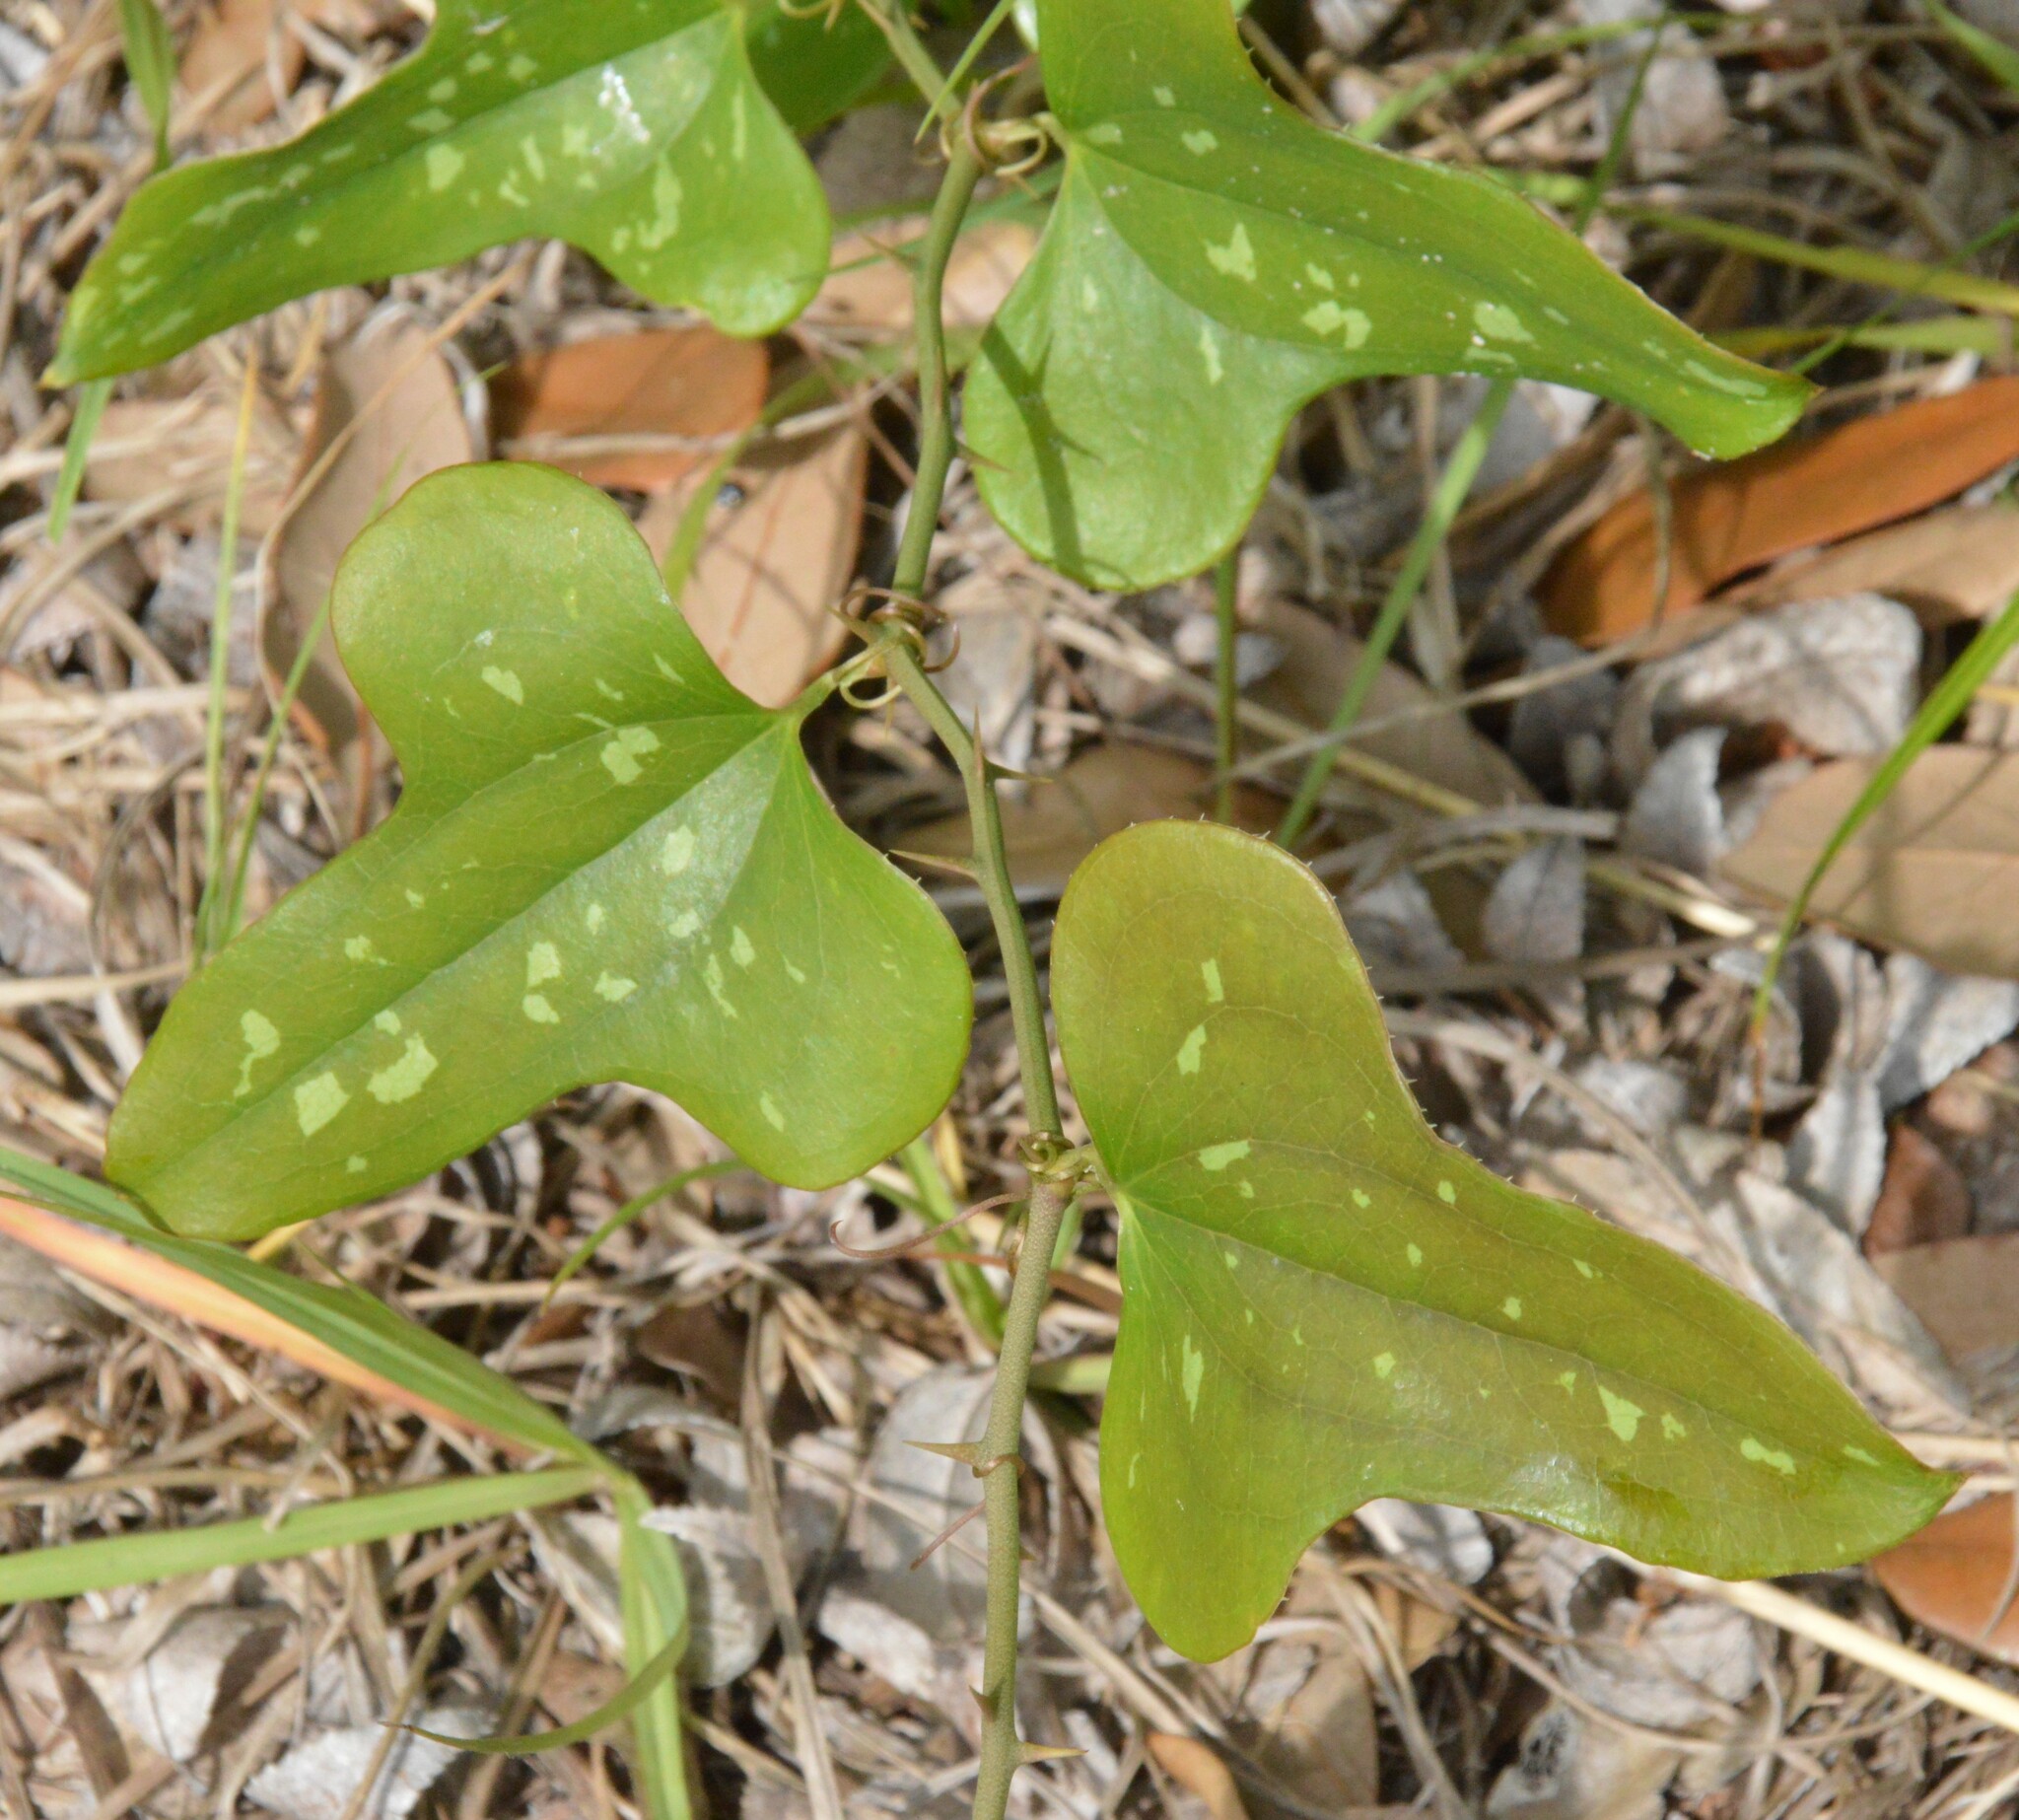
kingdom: Plantae
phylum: Tracheophyta
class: Liliopsida
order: Liliales
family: Smilacaceae
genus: Smilax
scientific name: Smilax bona-nox
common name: Catbrier
